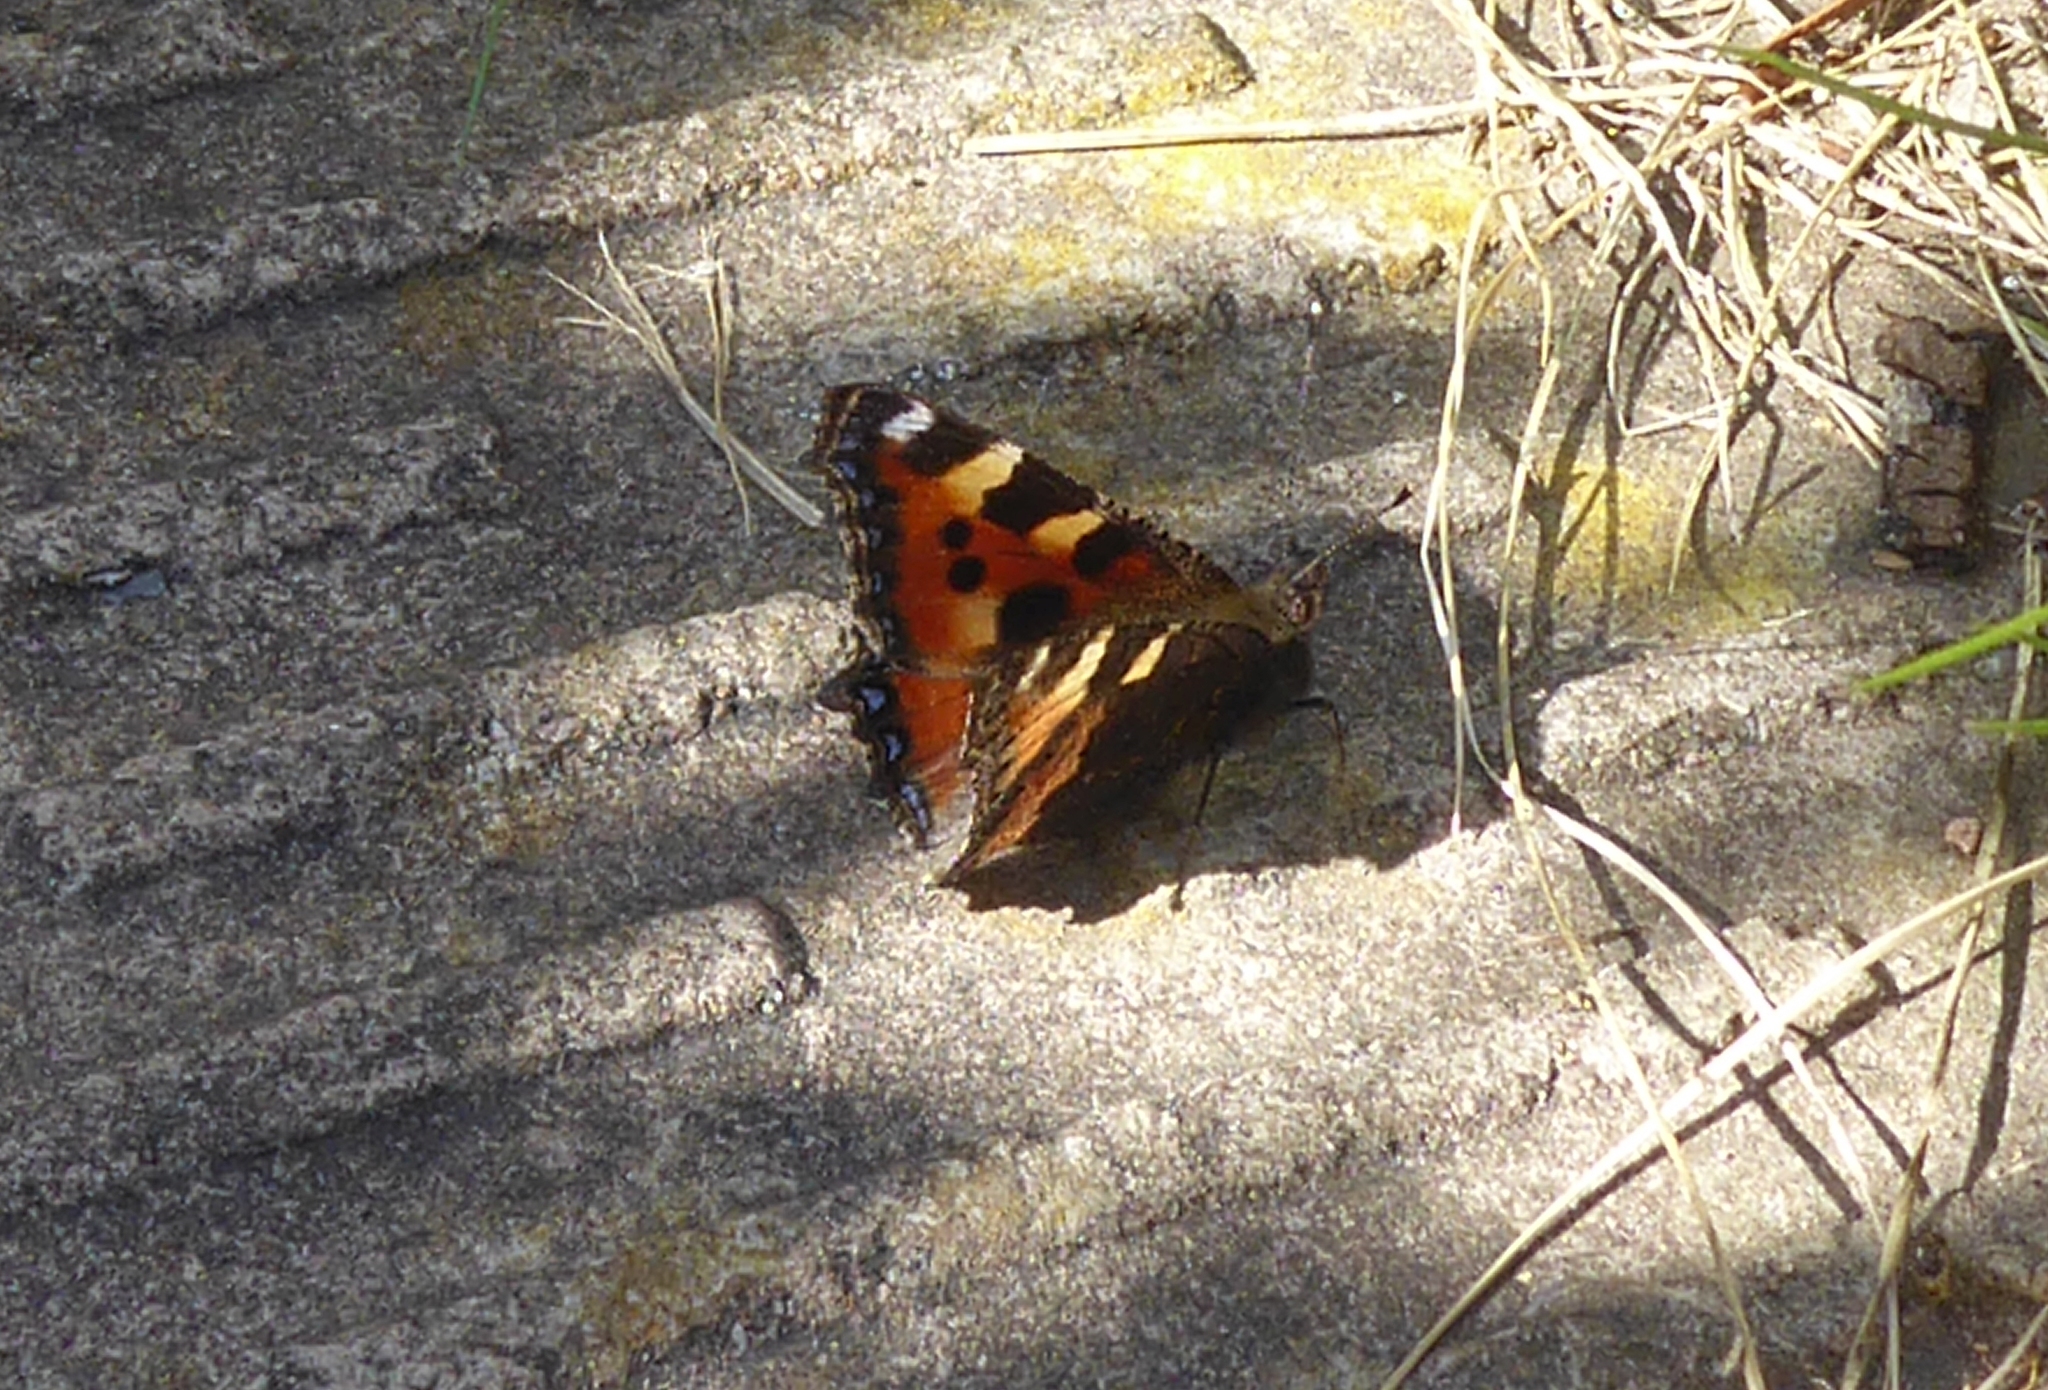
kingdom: Animalia
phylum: Arthropoda
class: Insecta
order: Lepidoptera
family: Nymphalidae
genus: Aglais
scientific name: Aglais urticae
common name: Small tortoiseshell
